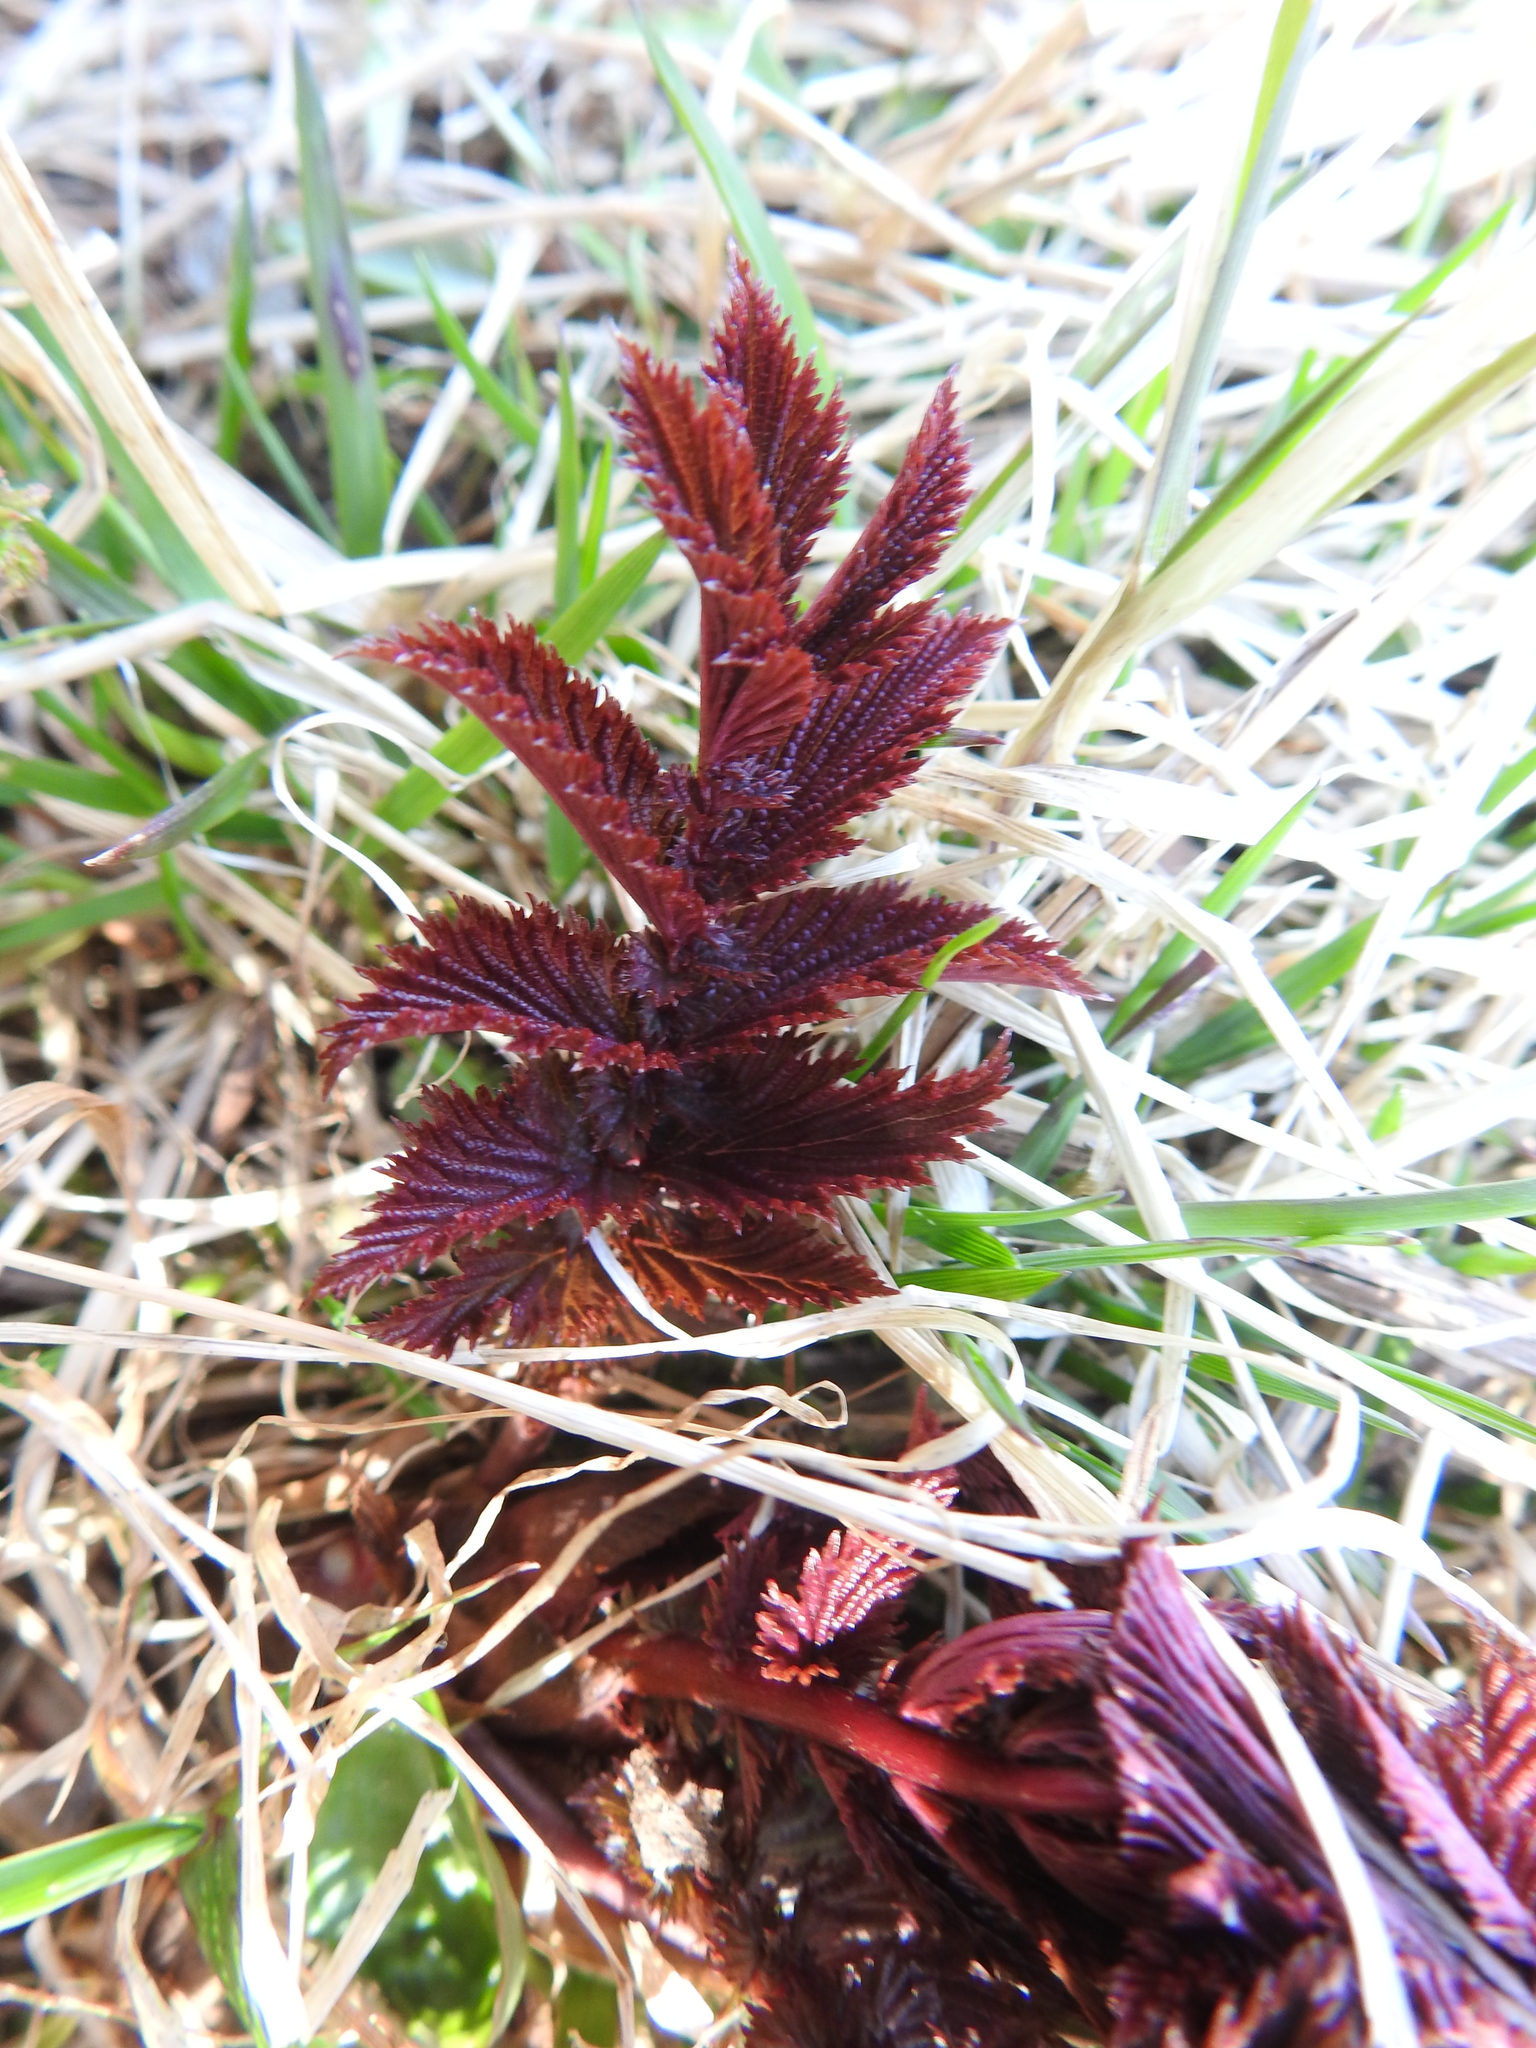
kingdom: Plantae
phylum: Tracheophyta
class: Magnoliopsida
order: Rosales
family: Rosaceae
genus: Filipendula
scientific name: Filipendula ulmaria
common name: Meadowsweet
